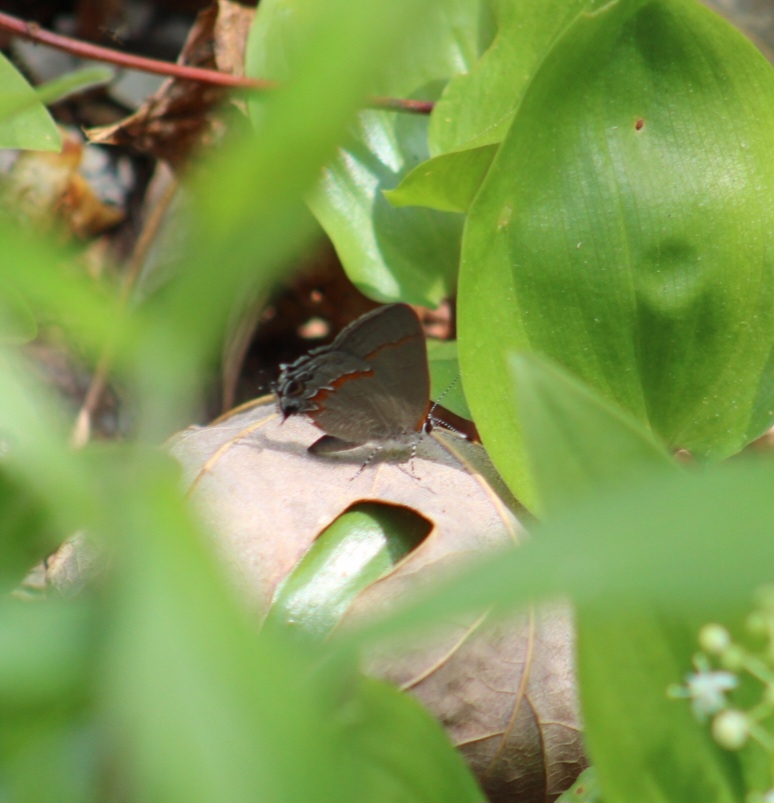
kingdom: Animalia
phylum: Arthropoda
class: Insecta
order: Lepidoptera
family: Lycaenidae
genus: Calycopis
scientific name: Calycopis cecrops
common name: Red-banded hairstreak
